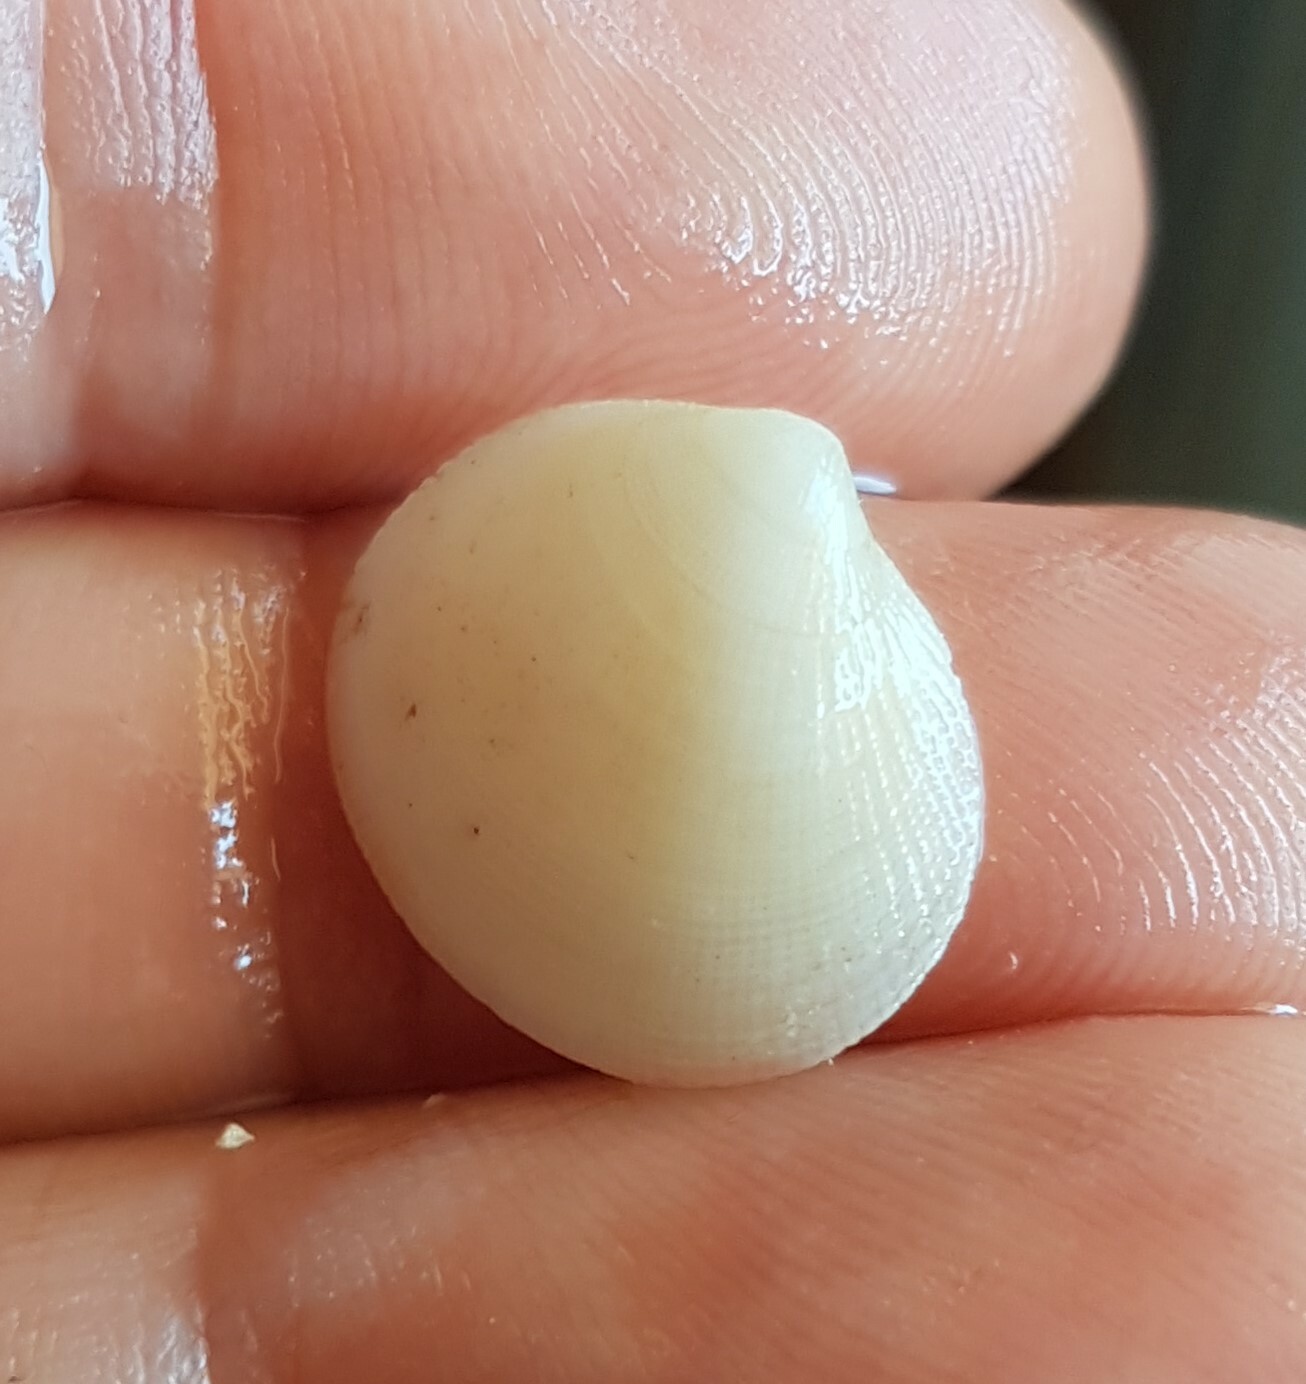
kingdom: Animalia
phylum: Mollusca
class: Bivalvia
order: Lucinida
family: Lucinidae
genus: Ctena
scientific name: Ctena decussata
